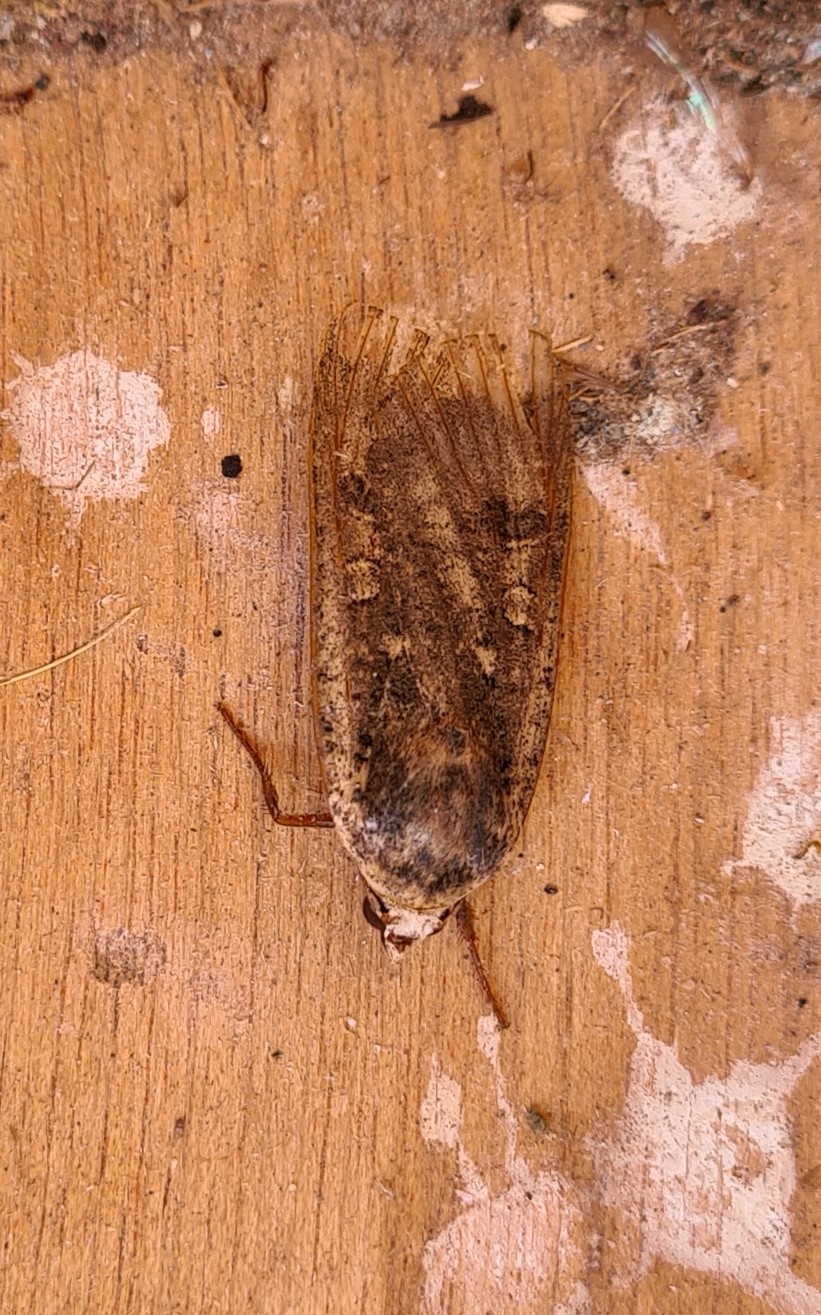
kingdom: Animalia
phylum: Arthropoda
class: Insecta
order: Lepidoptera
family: Noctuidae
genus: Noctua
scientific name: Noctua pronuba
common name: Large yellow underwing
